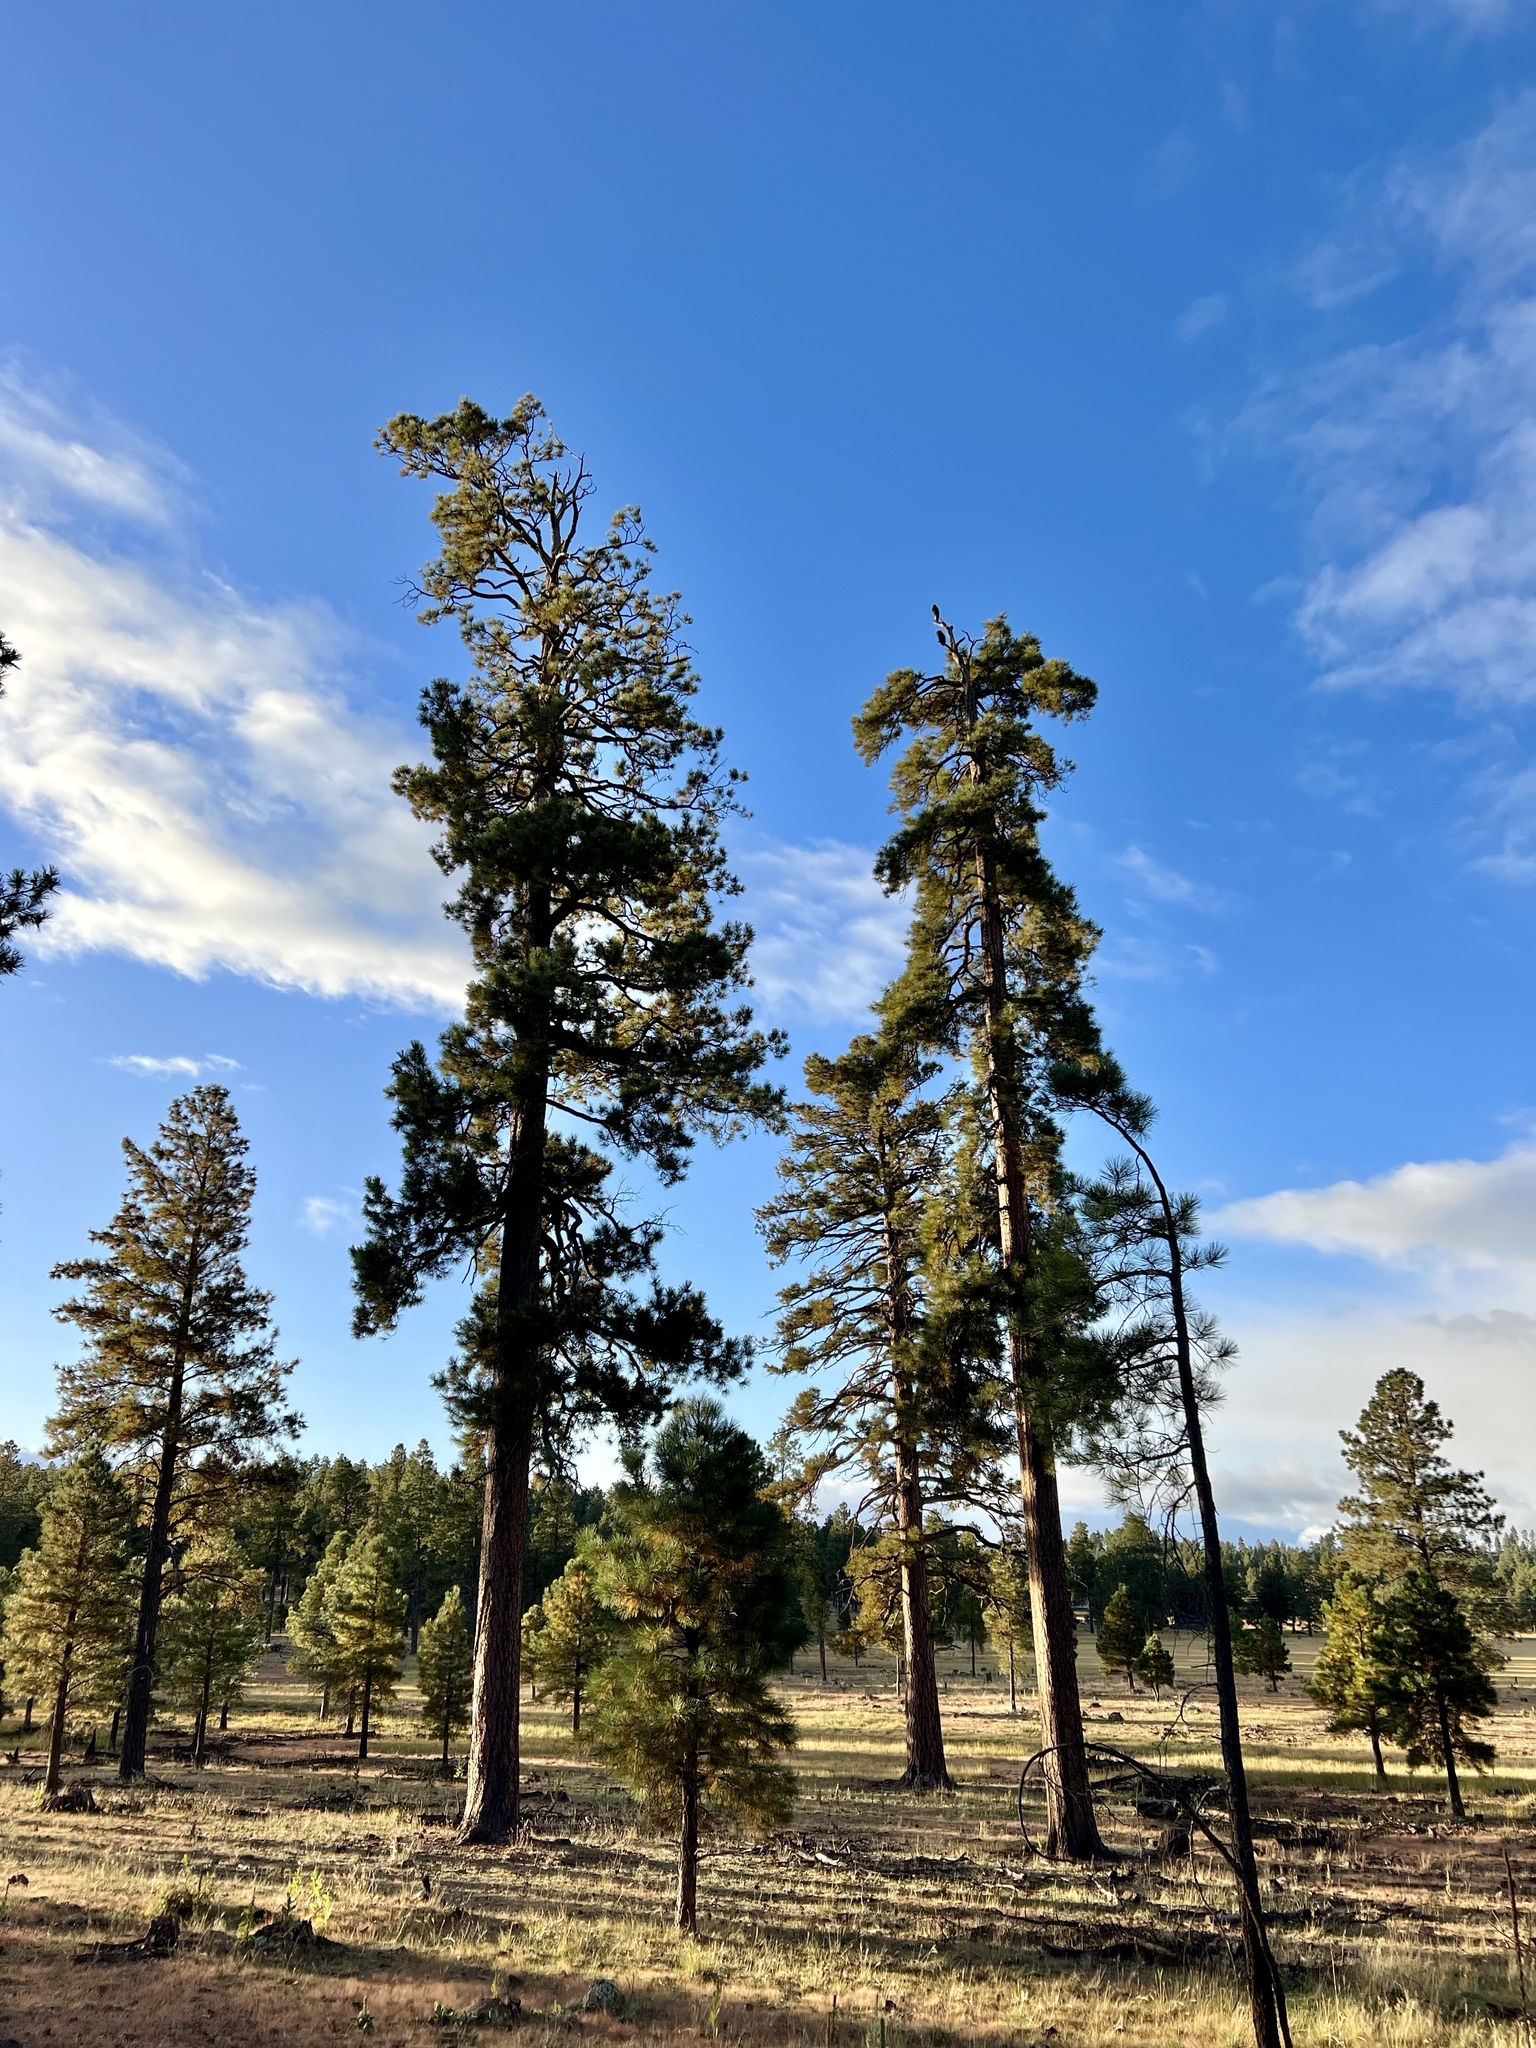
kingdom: Plantae
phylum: Tracheophyta
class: Pinopsida
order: Pinales
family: Pinaceae
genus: Pinus
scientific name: Pinus ponderosa
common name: Western yellow-pine
